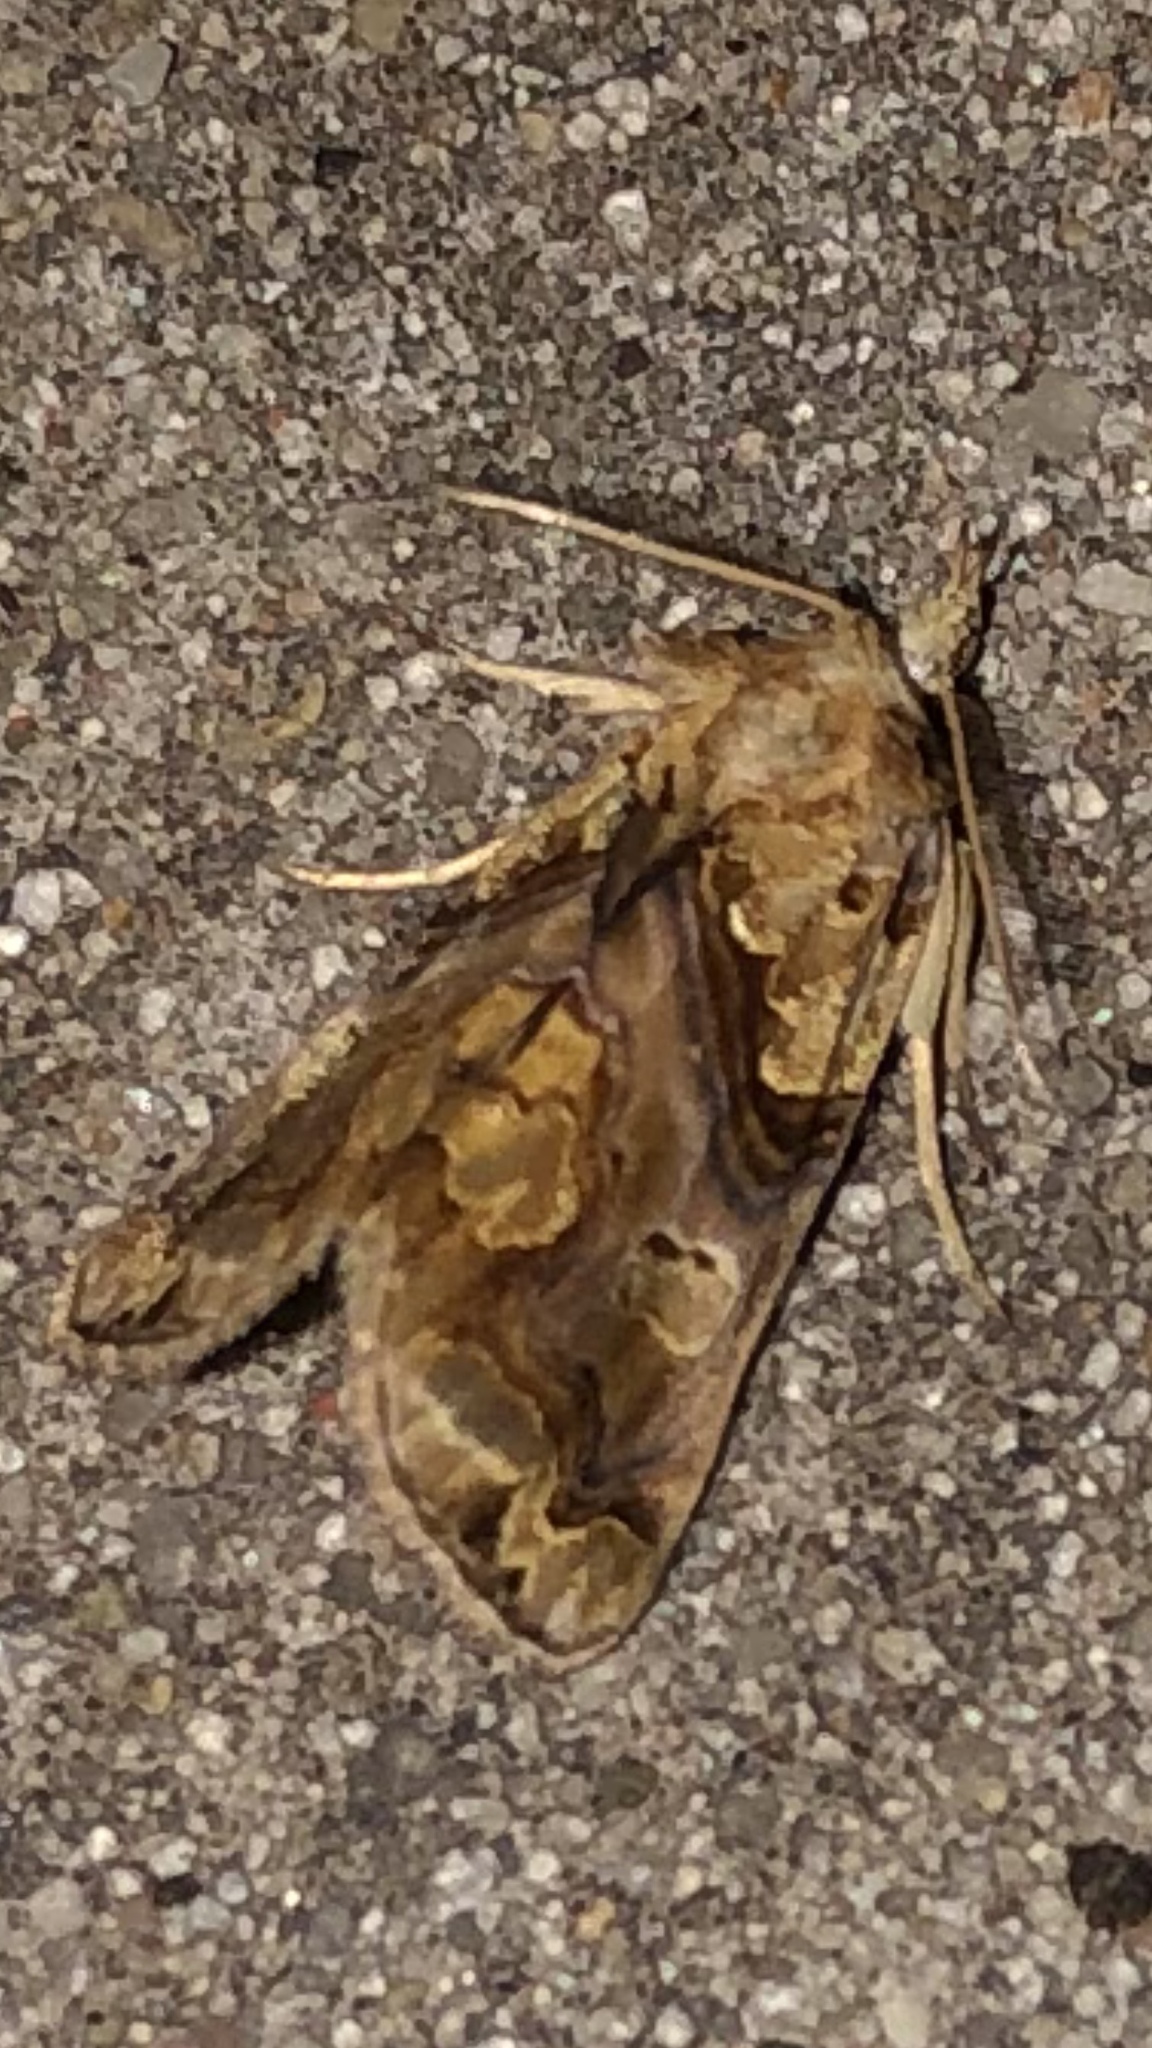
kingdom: Animalia
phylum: Arthropoda
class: Insecta
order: Lepidoptera
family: Erebidae
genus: Plusiodonta
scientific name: Plusiodonta compressipalpis
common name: Moonseed moth
